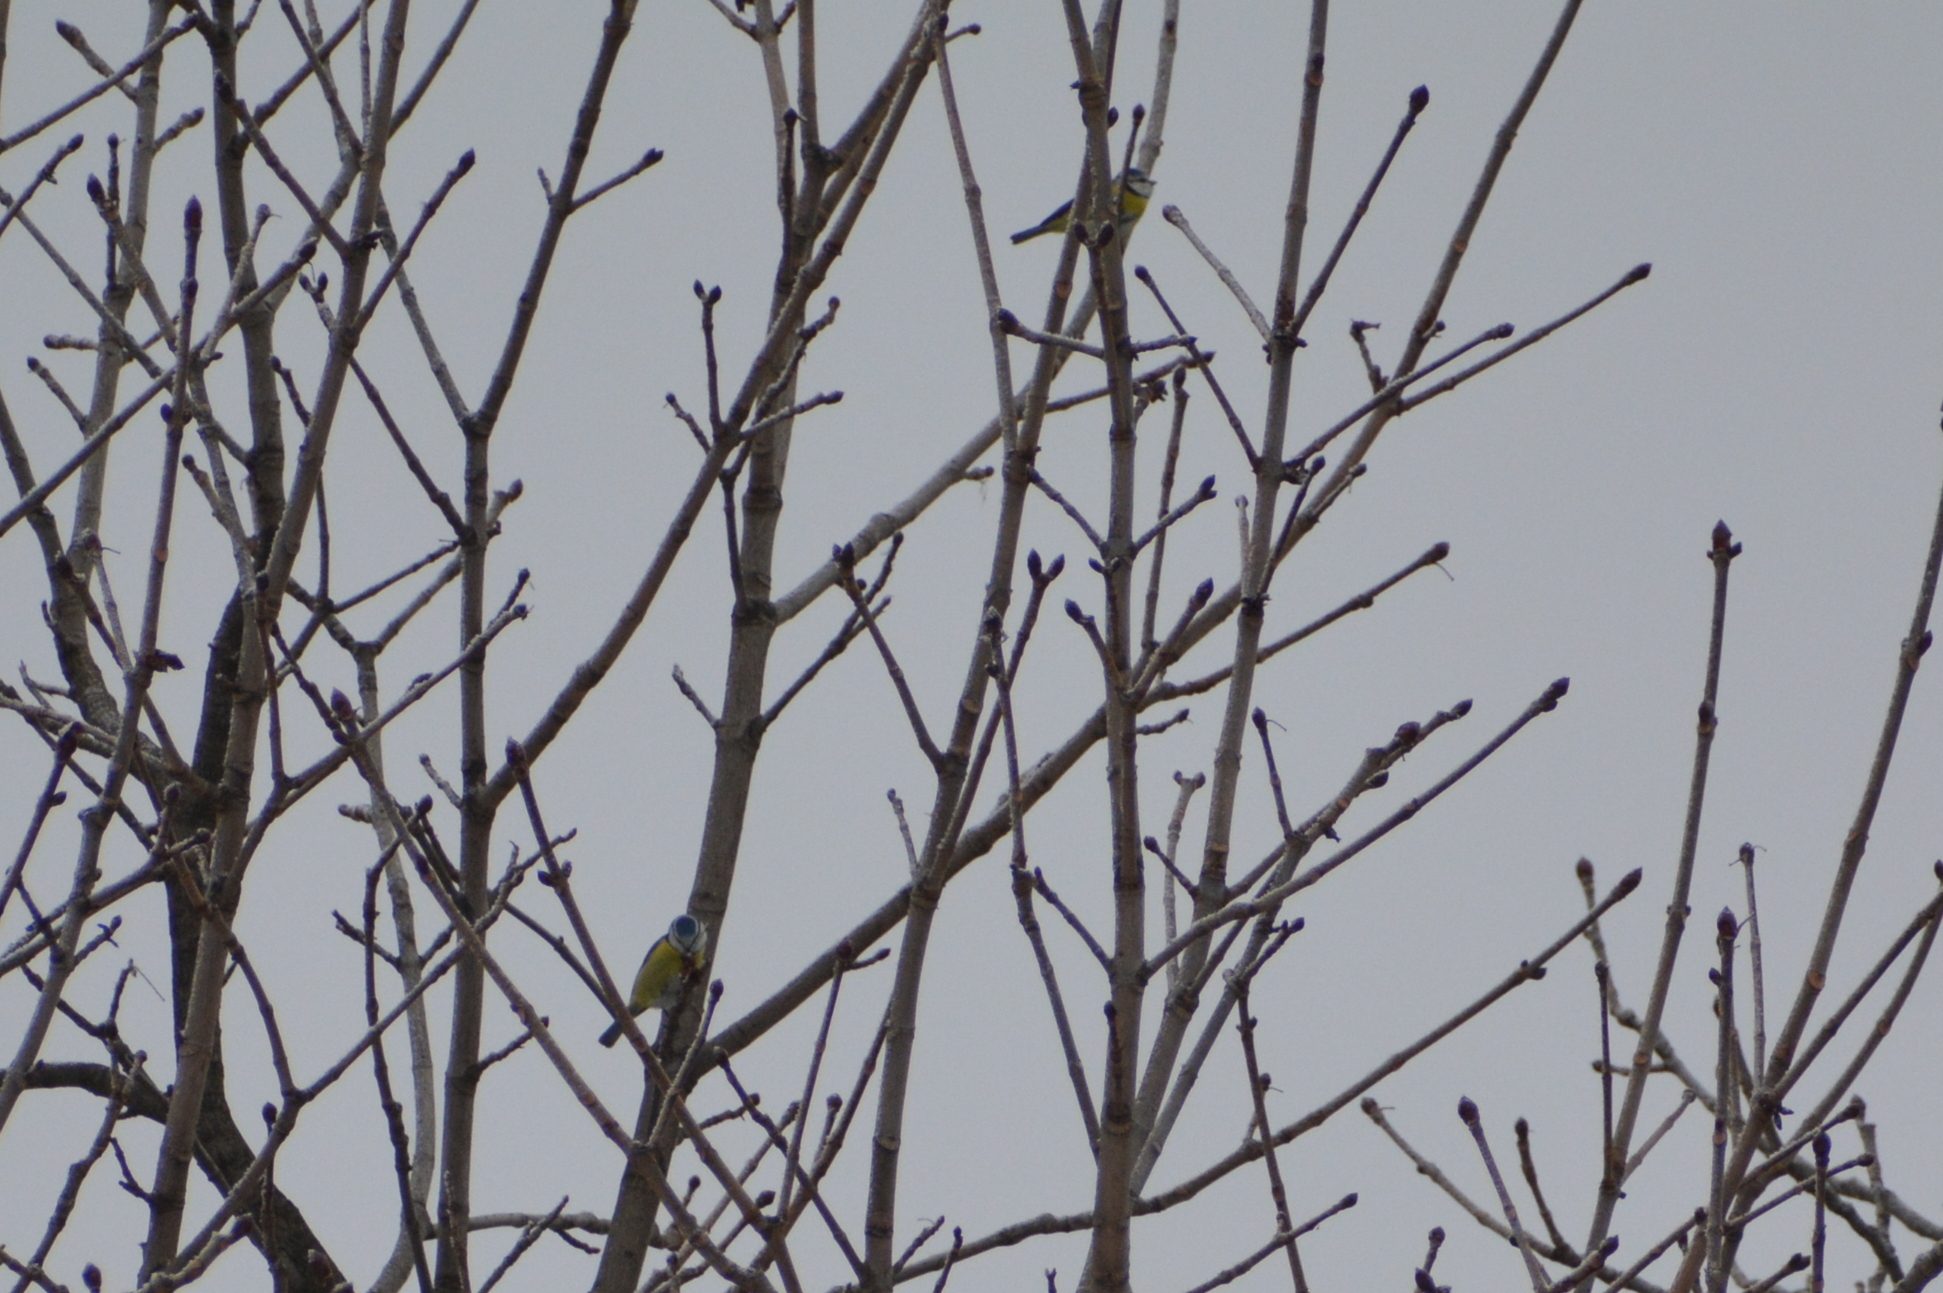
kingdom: Animalia
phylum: Chordata
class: Aves
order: Passeriformes
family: Paridae
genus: Cyanistes
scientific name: Cyanistes caeruleus
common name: Eurasian blue tit
